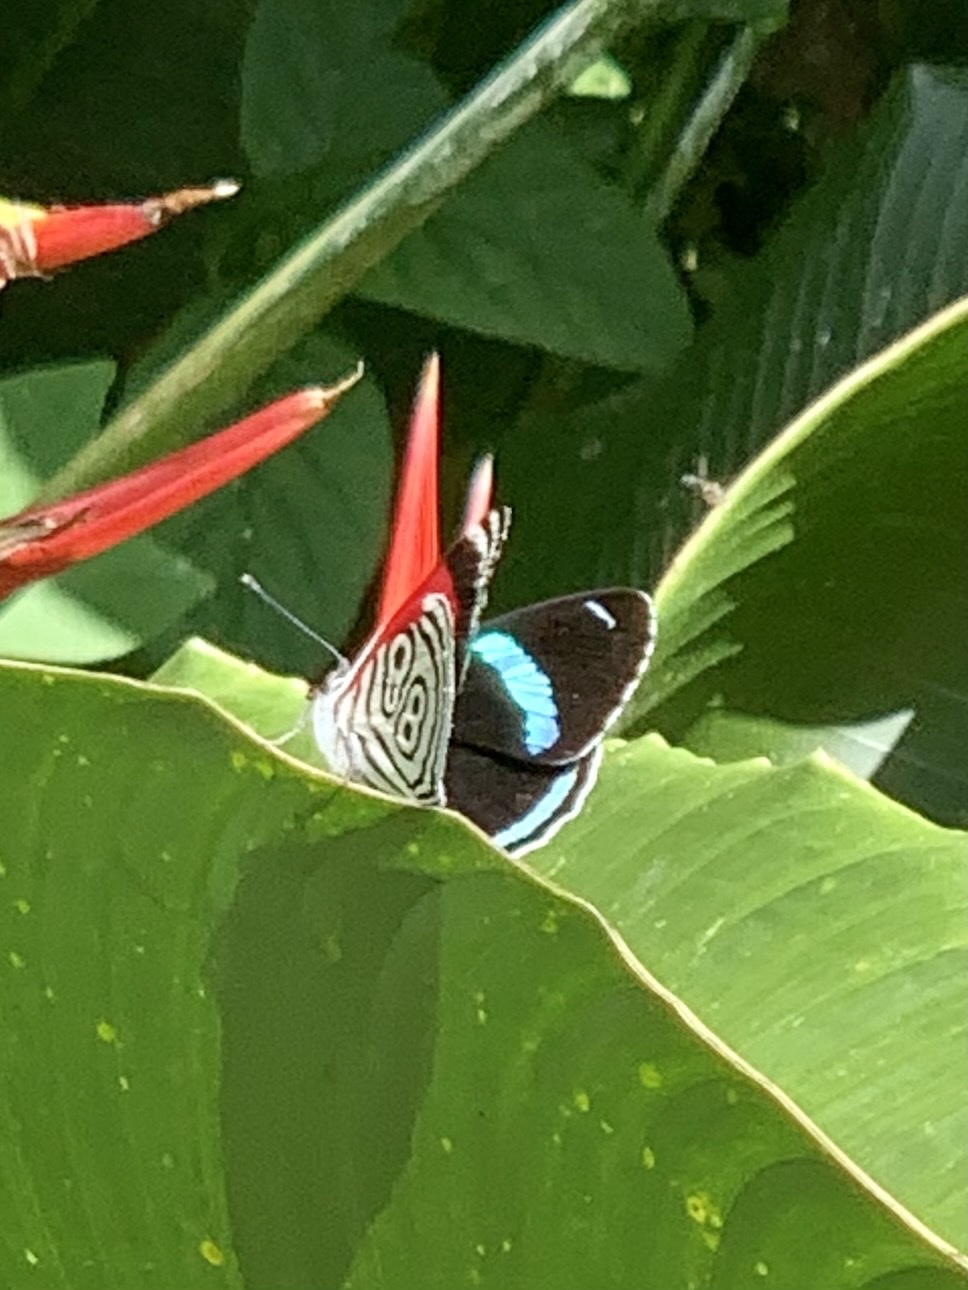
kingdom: Animalia
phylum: Arthropoda
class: Insecta
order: Lepidoptera
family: Nymphalidae
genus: Diaethria
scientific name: Diaethria clymena
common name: Widespread eighty-eight
